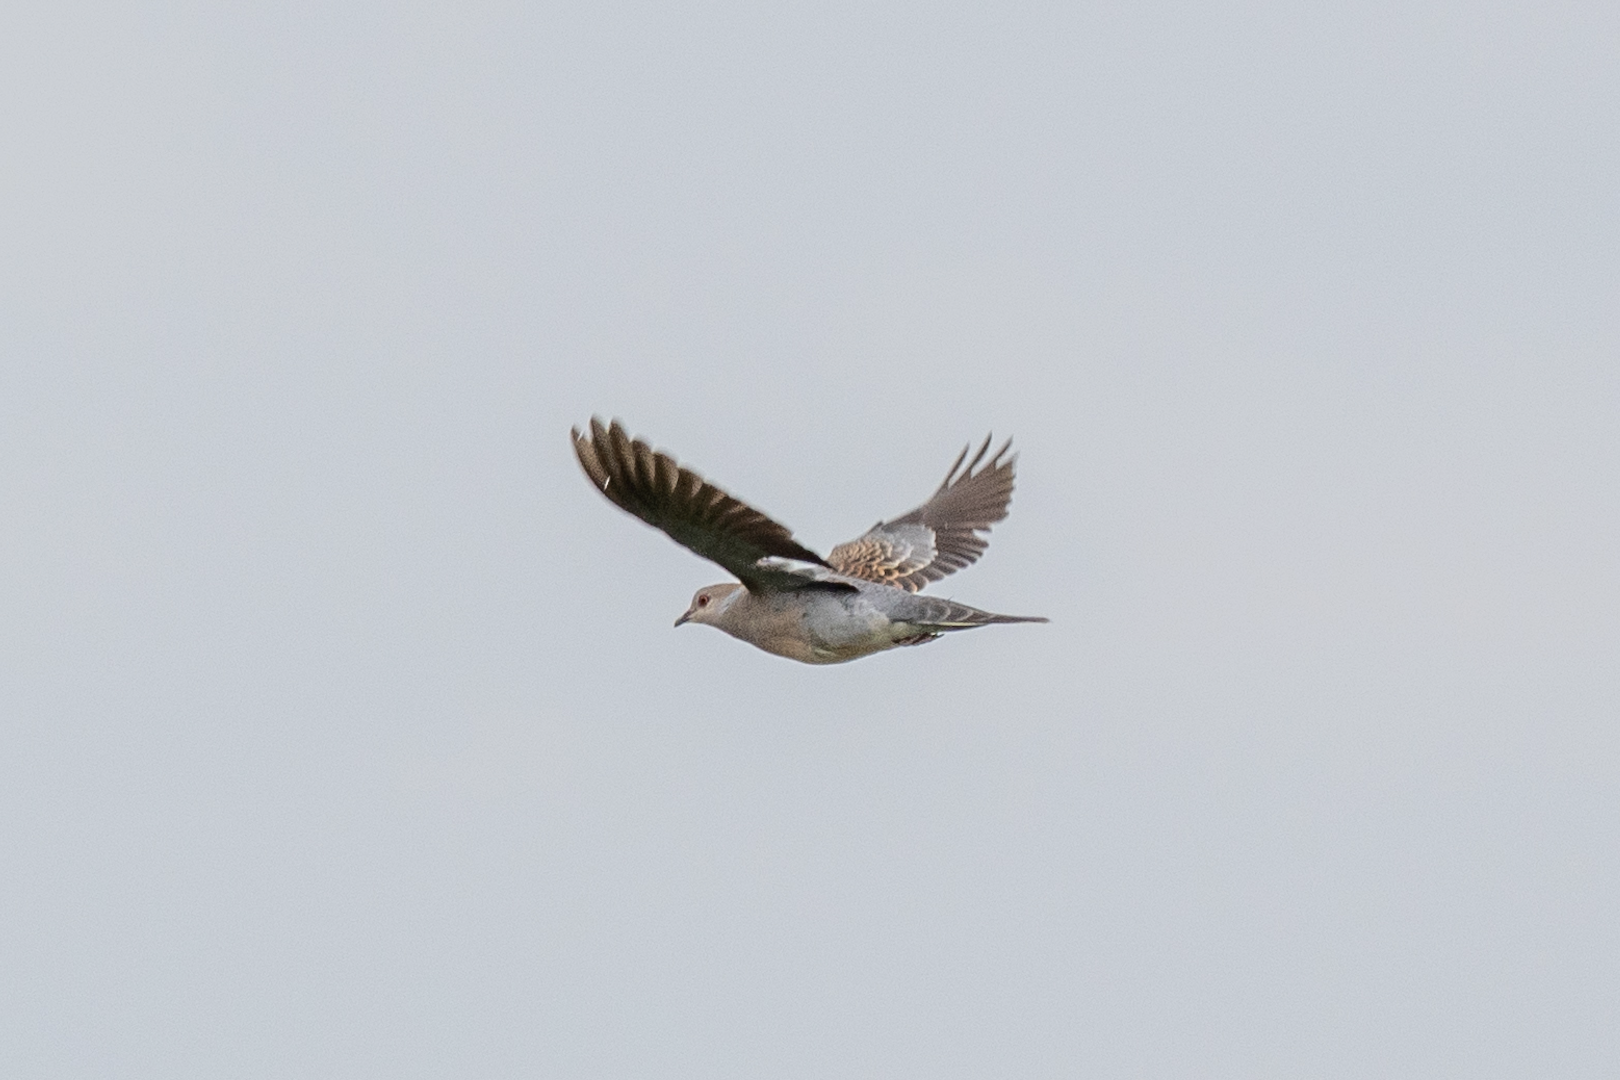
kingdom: Animalia
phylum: Chordata
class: Aves
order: Columbiformes
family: Columbidae
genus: Streptopelia
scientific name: Streptopelia orientalis
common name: Oriental turtle dove
